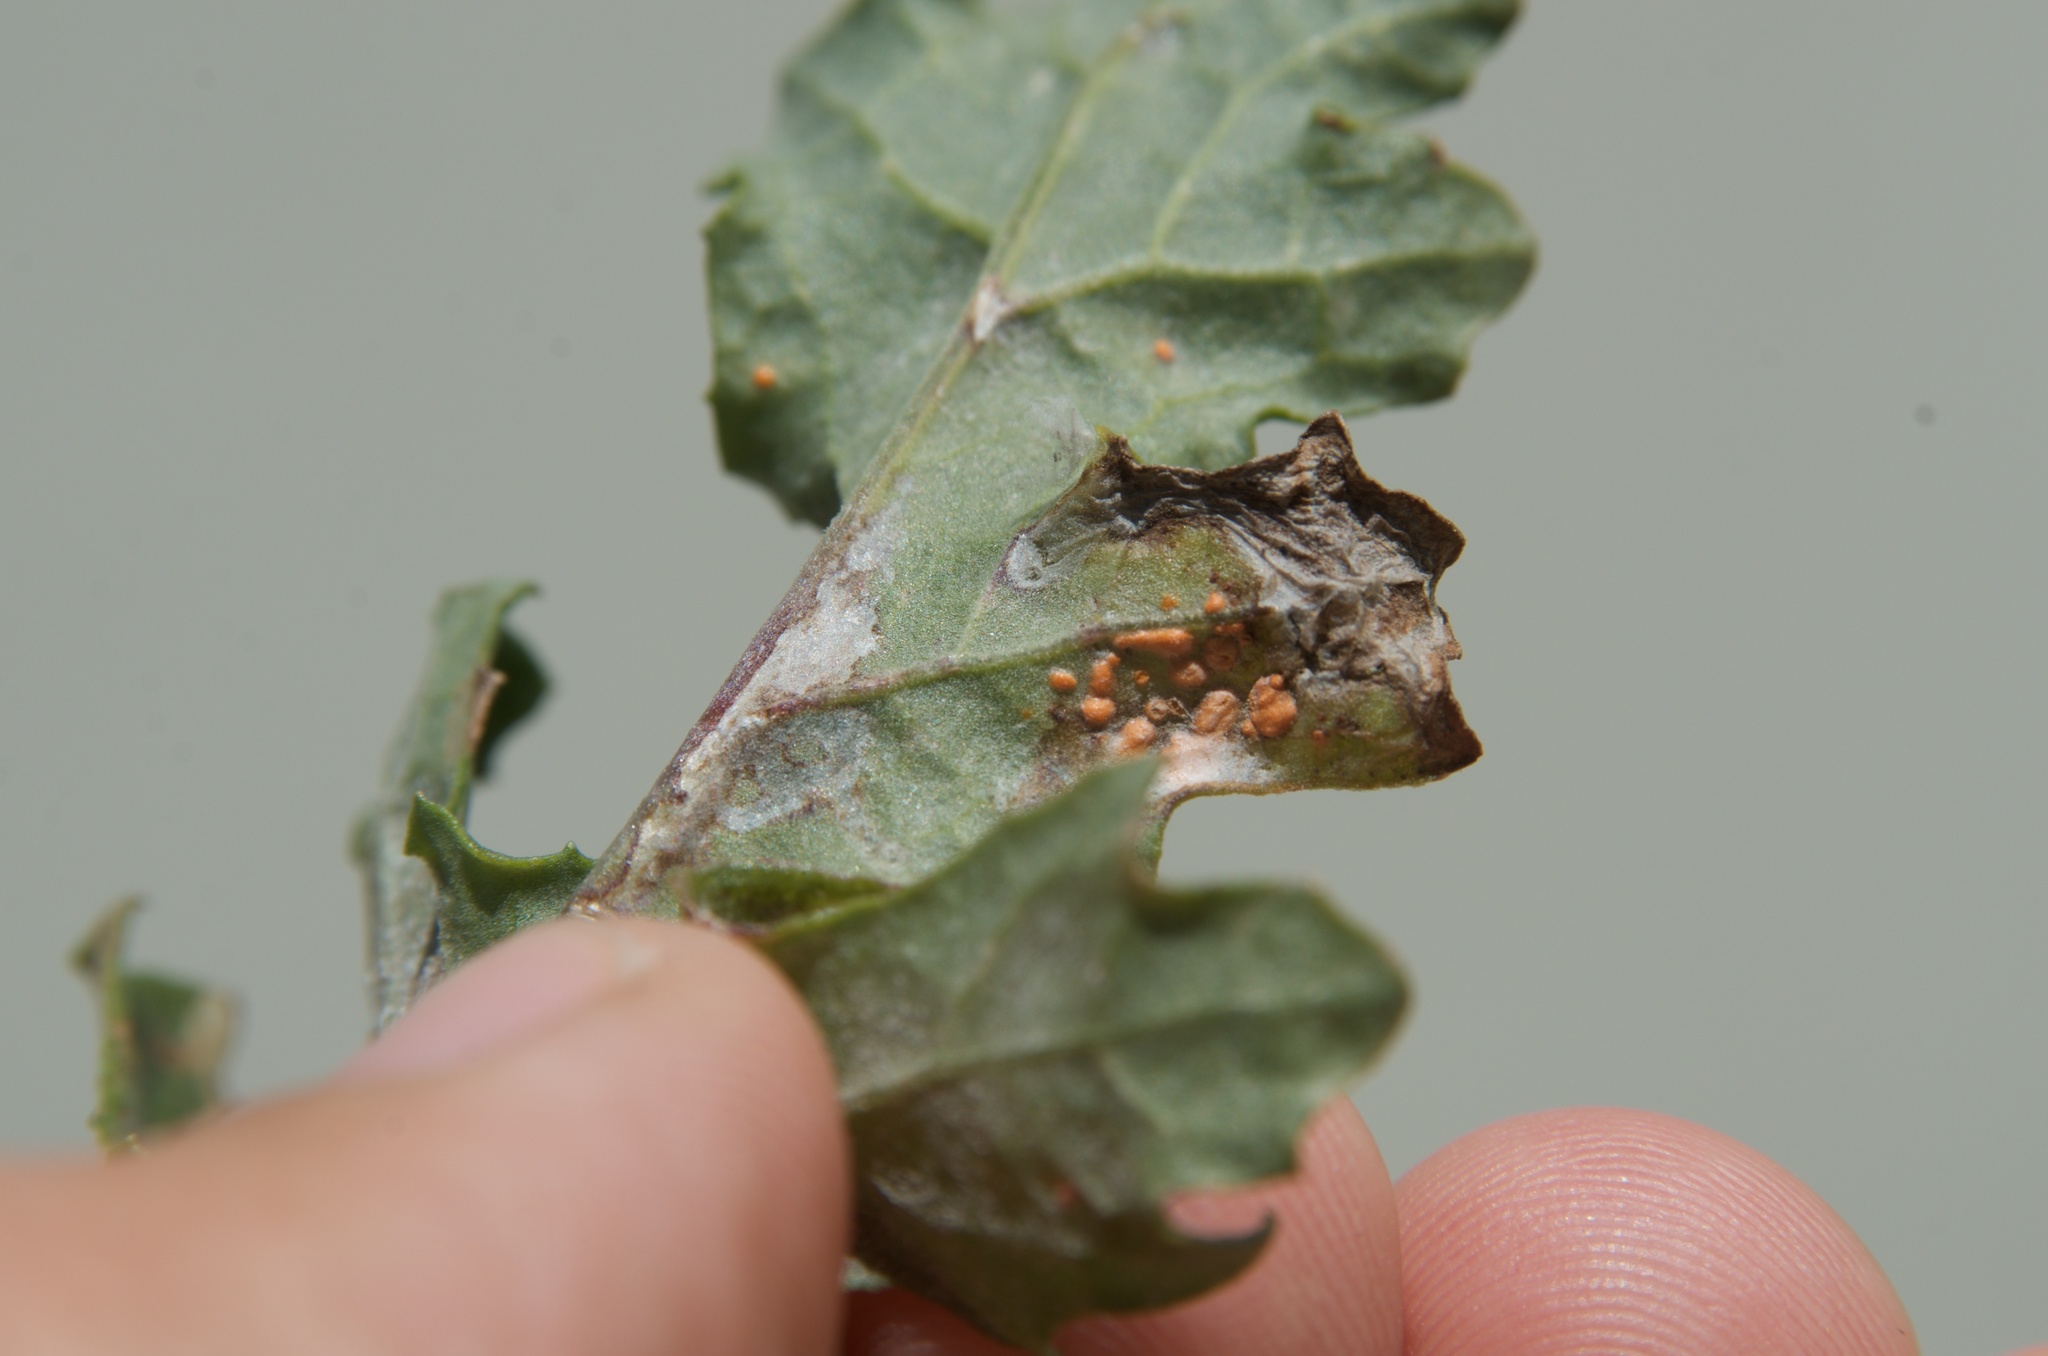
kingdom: Fungi
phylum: Basidiomycota
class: Pucciniomycetes
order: Pucciniales
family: Coleosporiaceae
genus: Coleosporium
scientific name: Coleosporium tussilaginis
